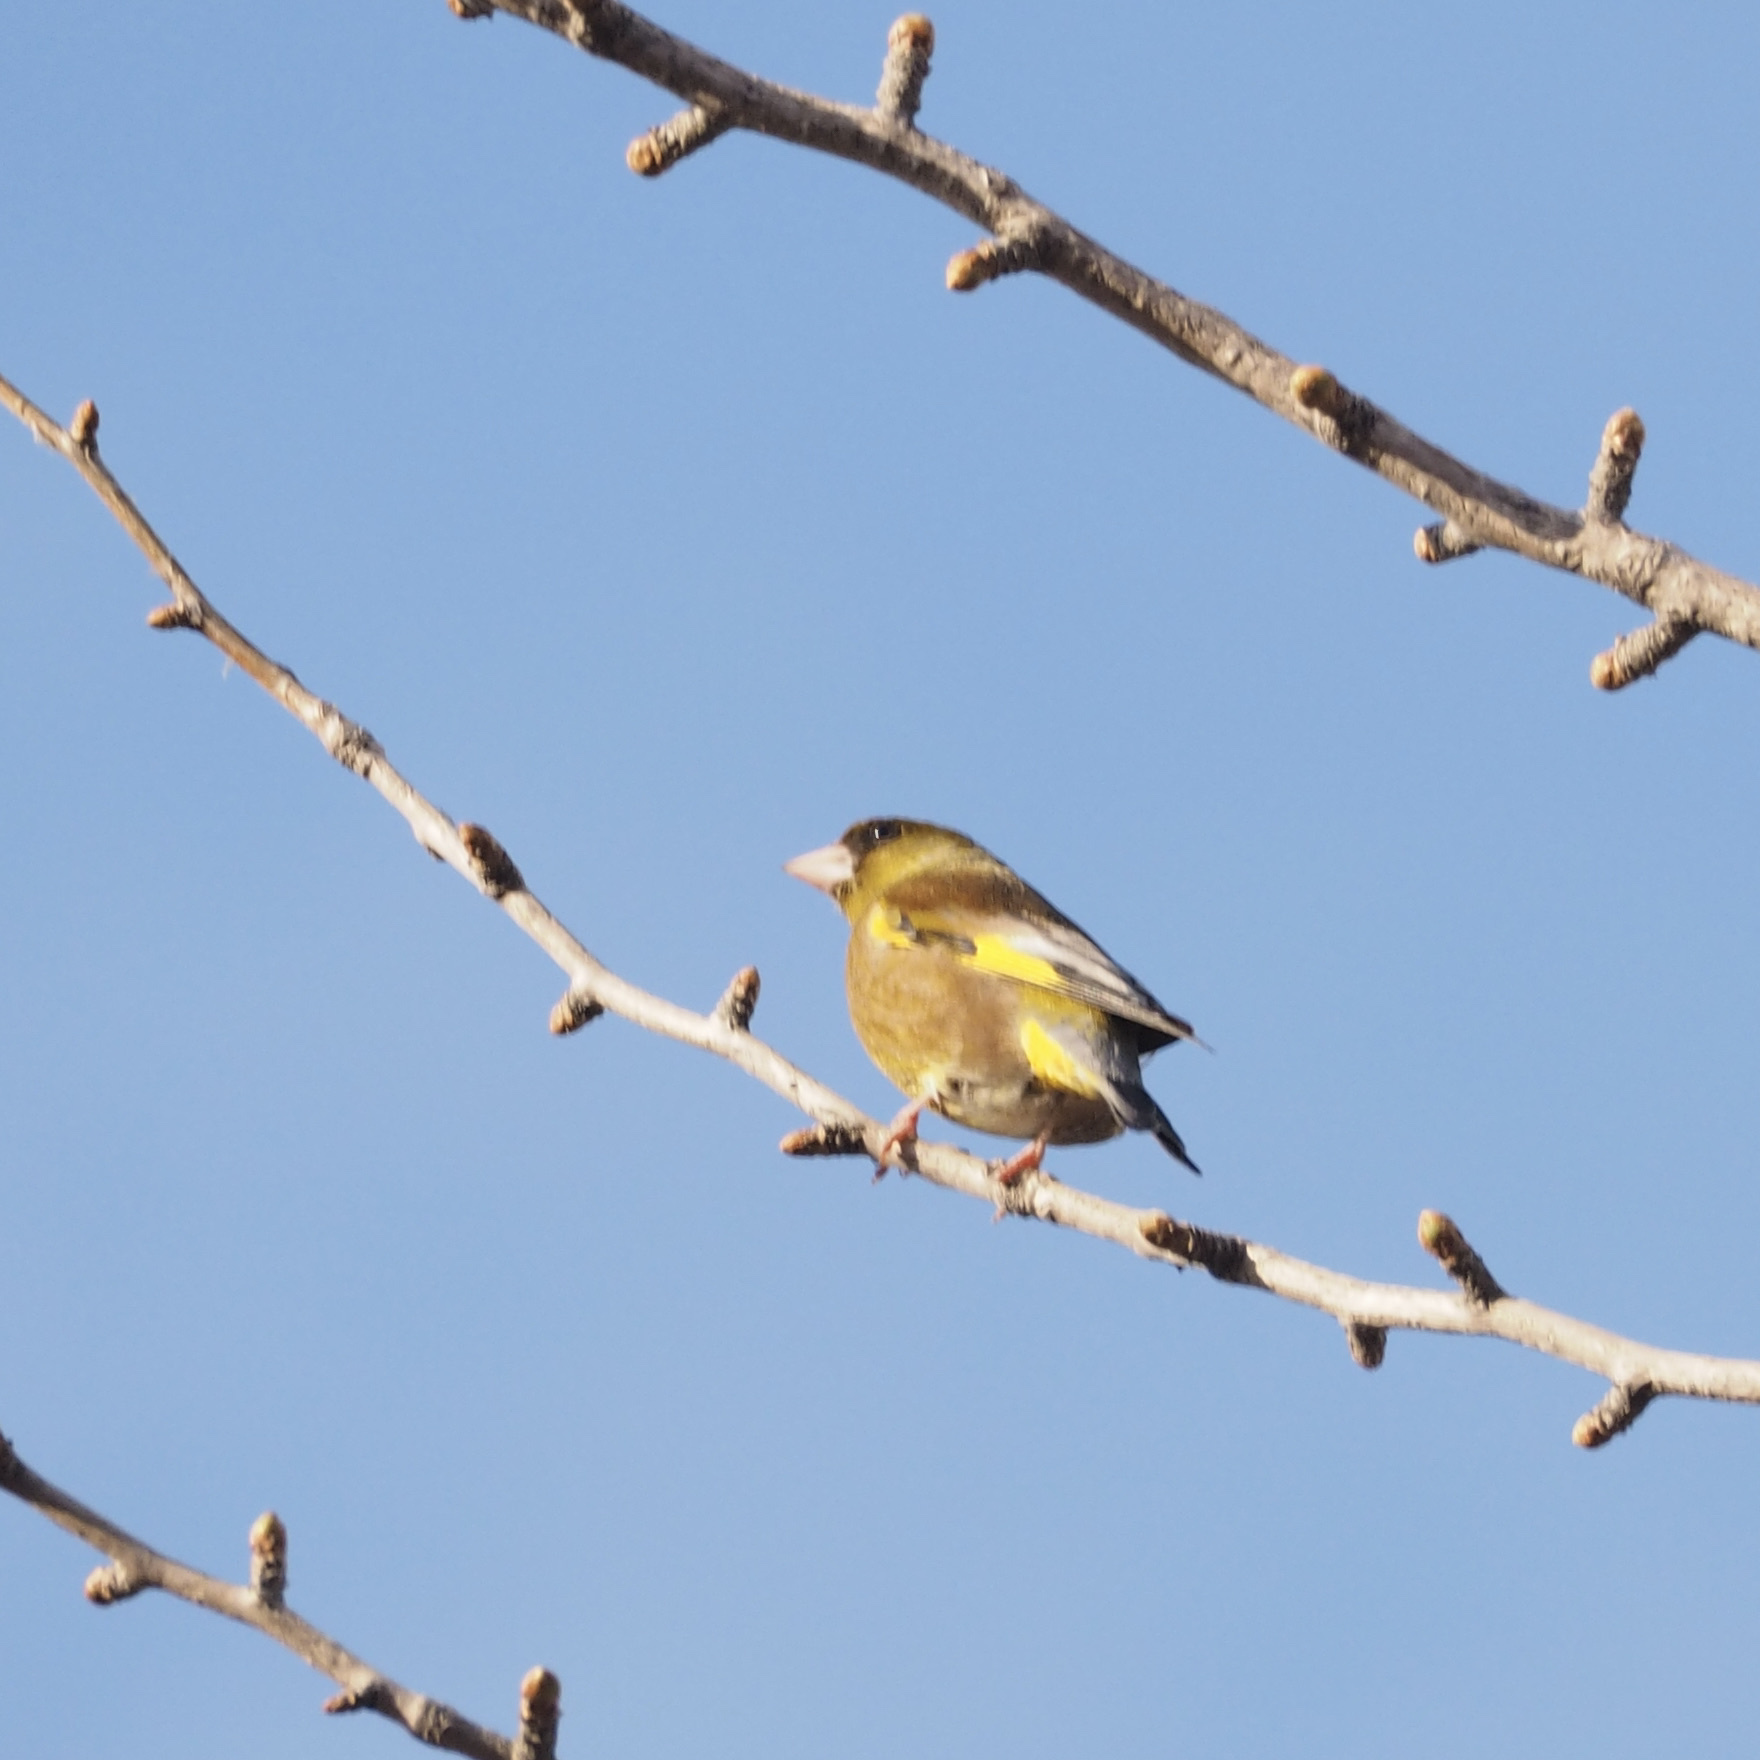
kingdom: Plantae
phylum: Tracheophyta
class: Liliopsida
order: Poales
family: Poaceae
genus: Chloris
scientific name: Chloris sinica
